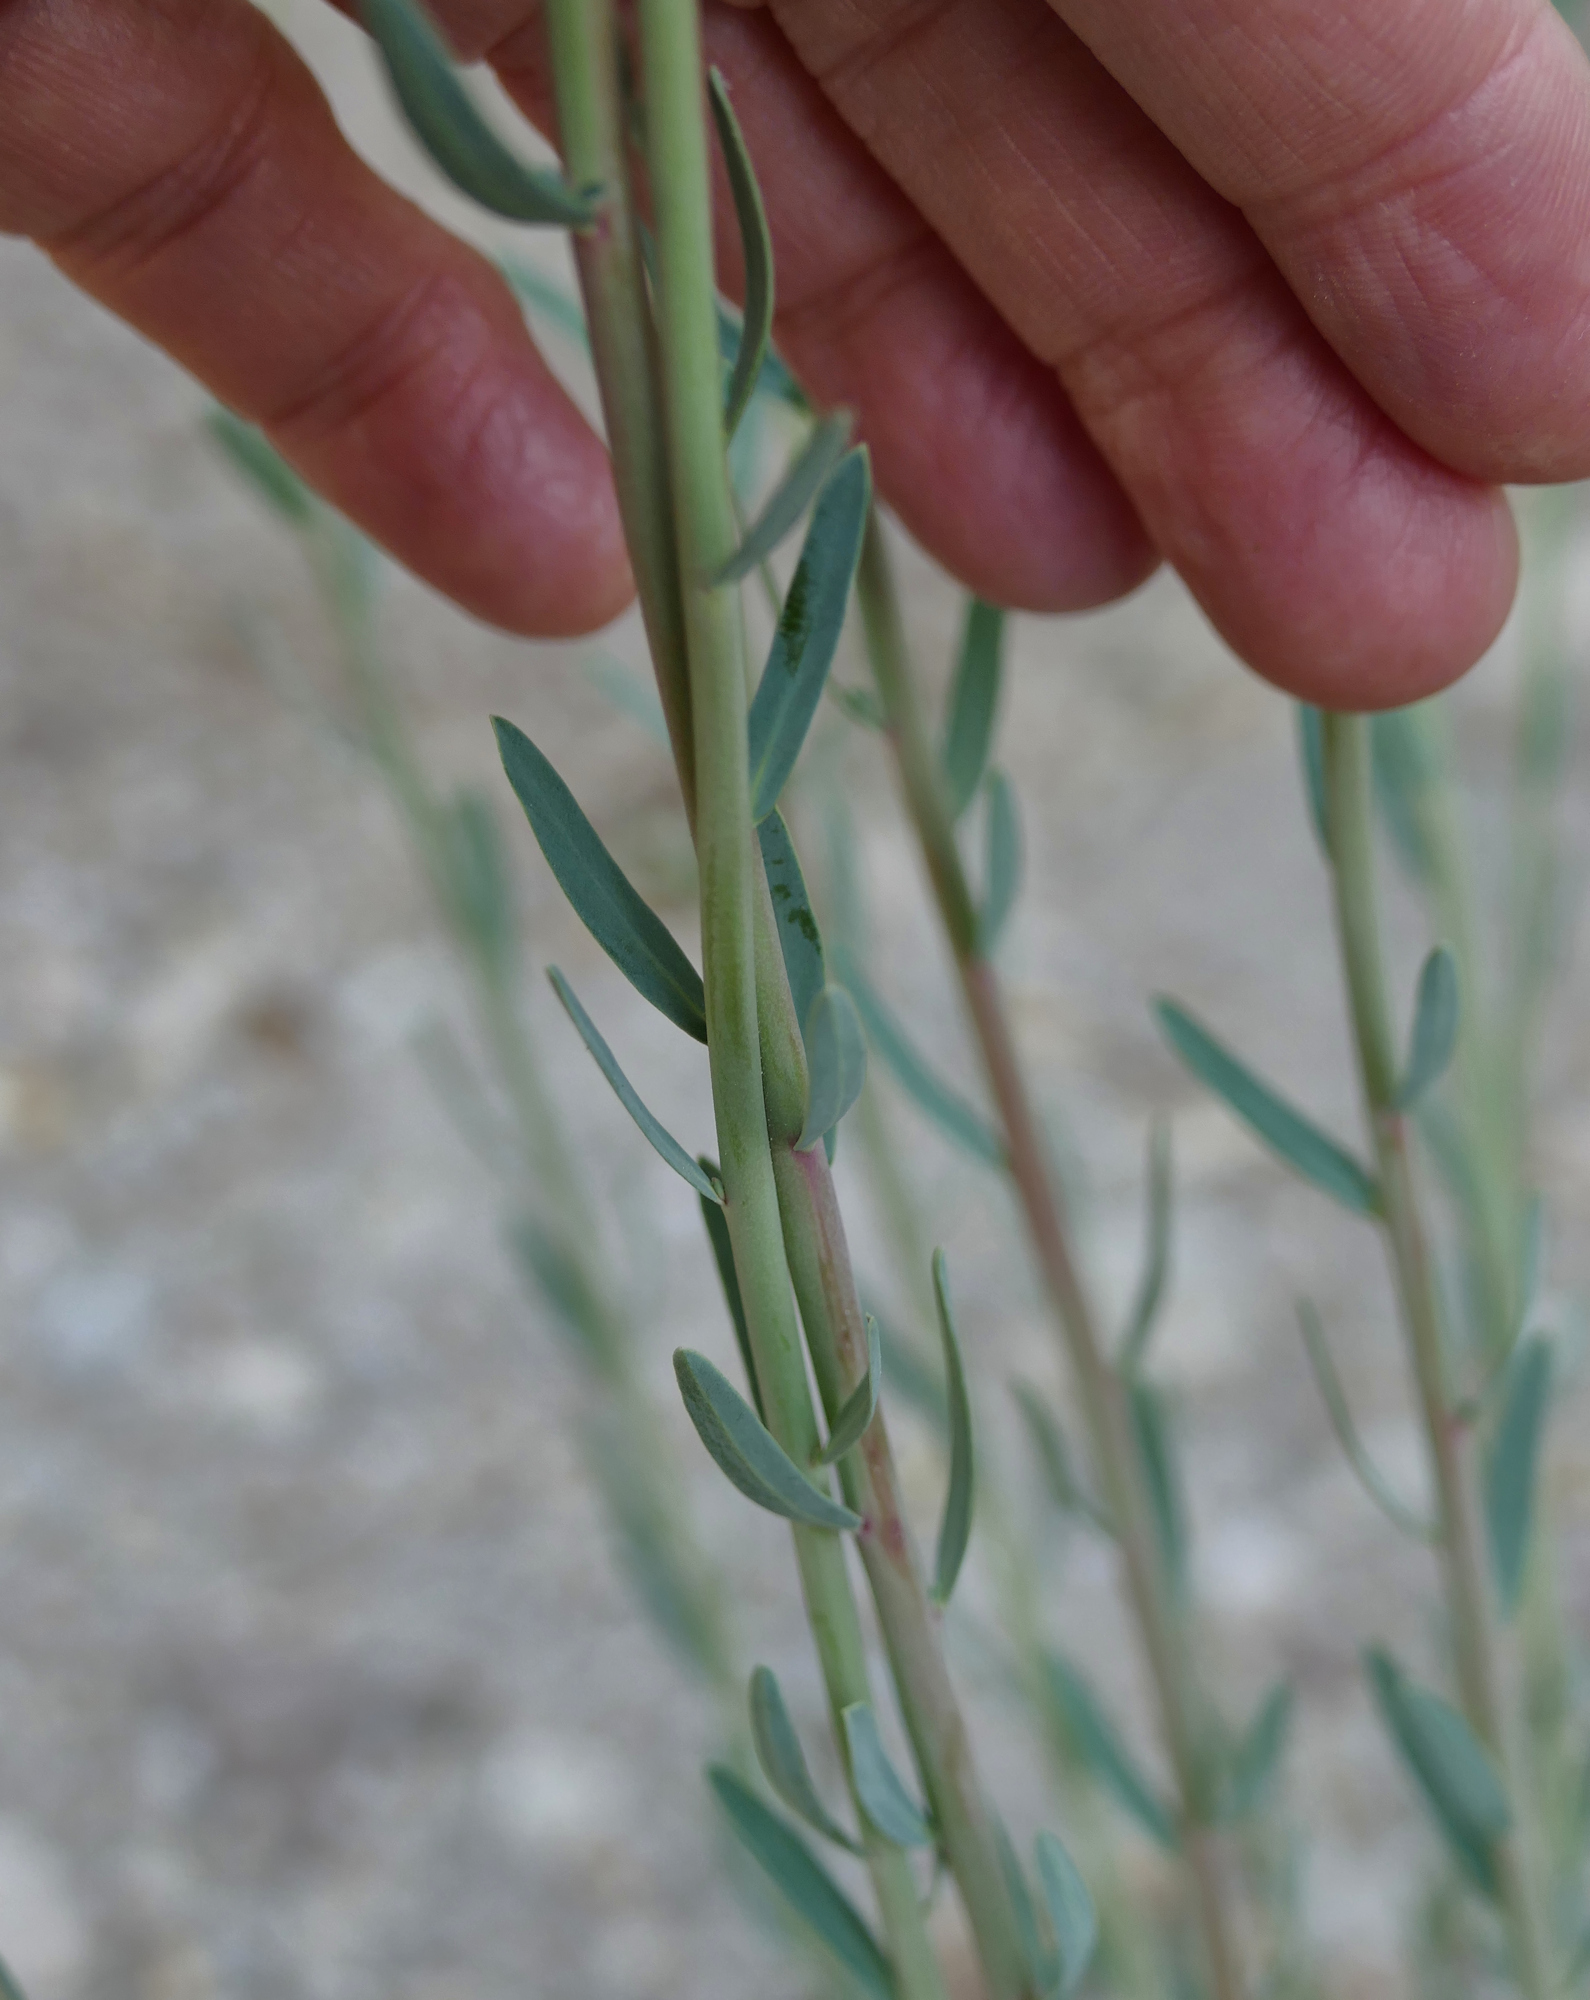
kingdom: Plantae
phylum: Tracheophyta
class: Magnoliopsida
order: Malpighiales
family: Euphorbiaceae
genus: Euphorbia
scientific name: Euphorbia chamaesula
